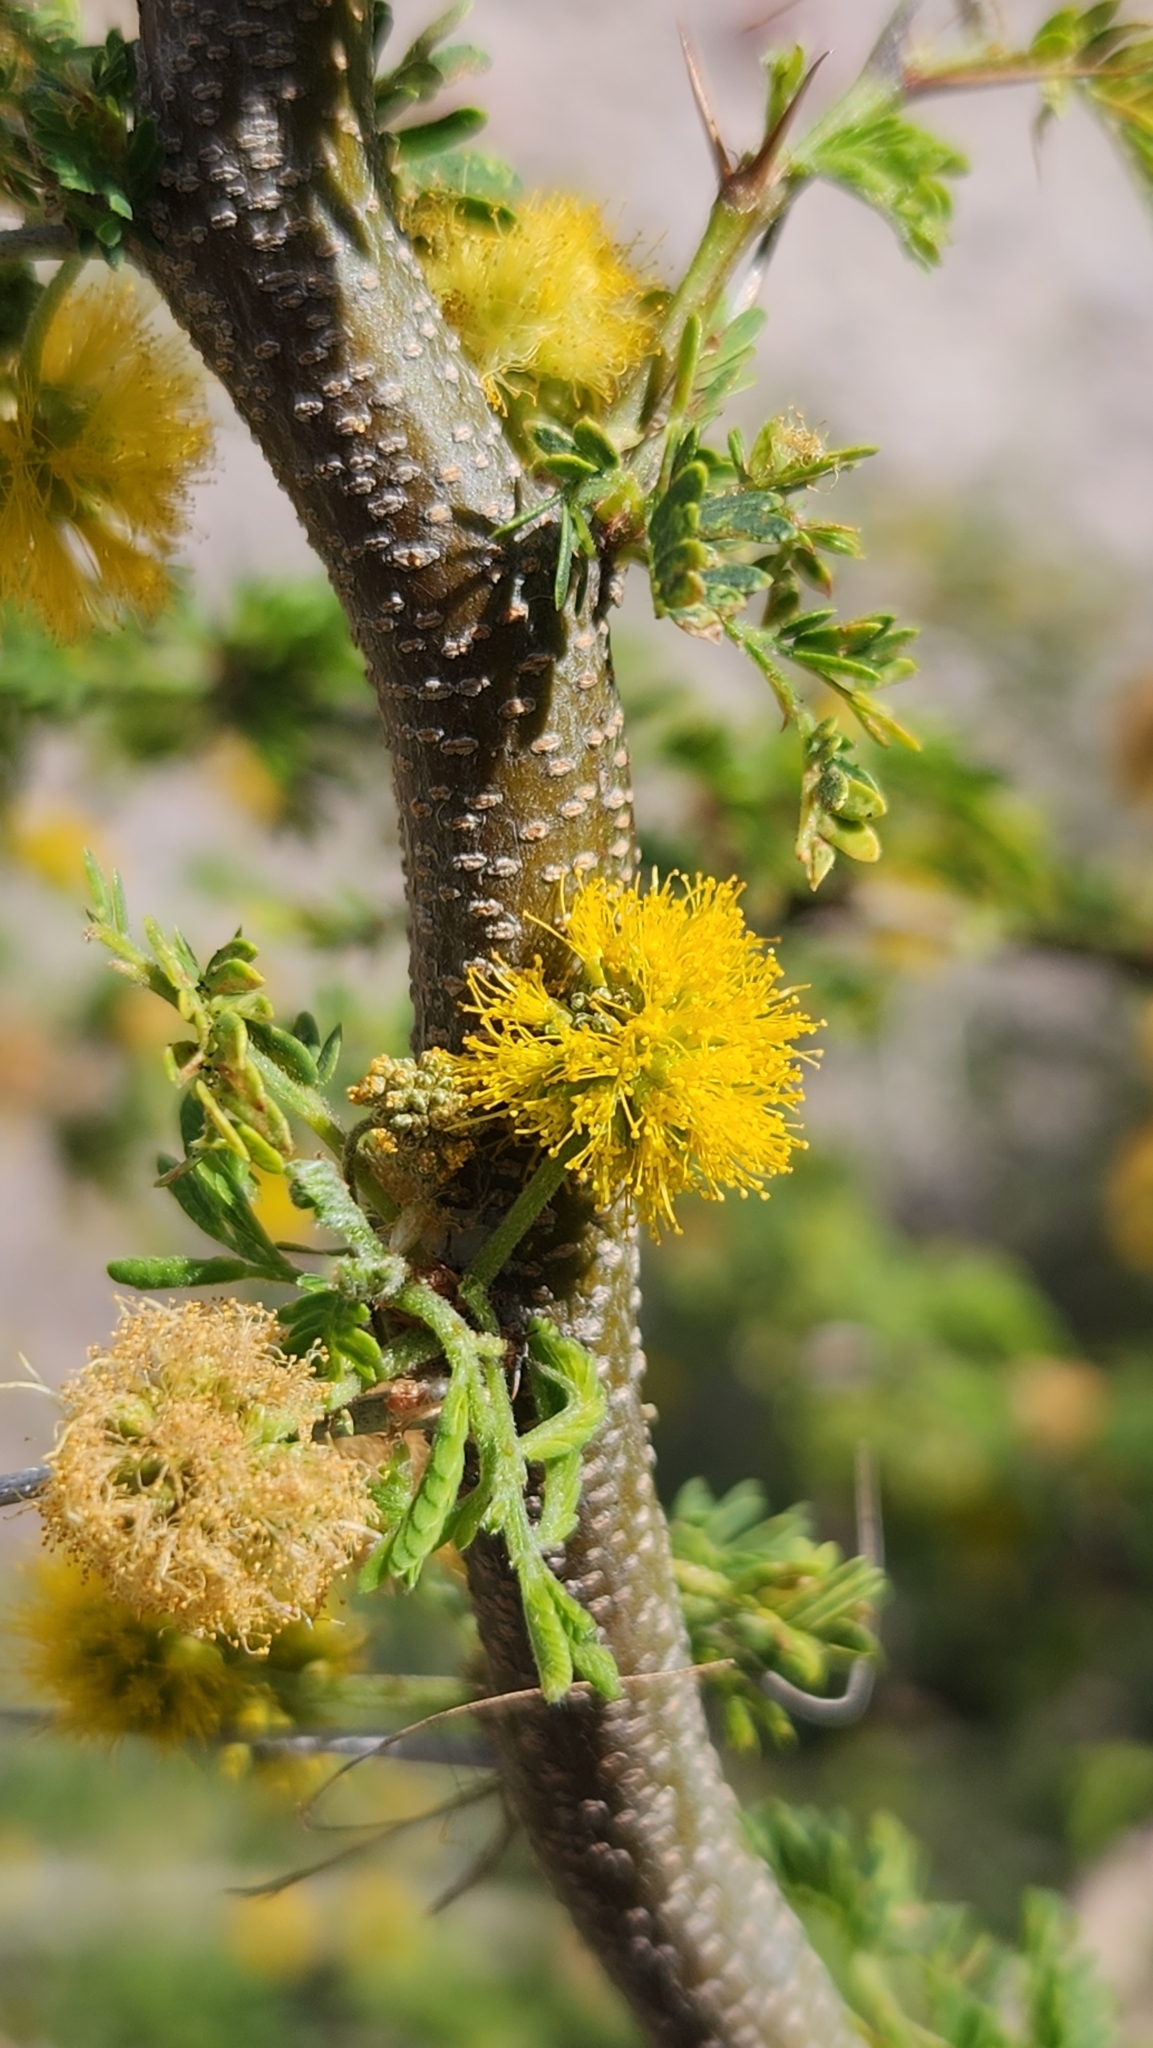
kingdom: Plantae
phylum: Tracheophyta
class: Magnoliopsida
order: Fabales
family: Fabaceae
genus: Vachellia
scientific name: Vachellia farnesiana
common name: Sweet acacia
